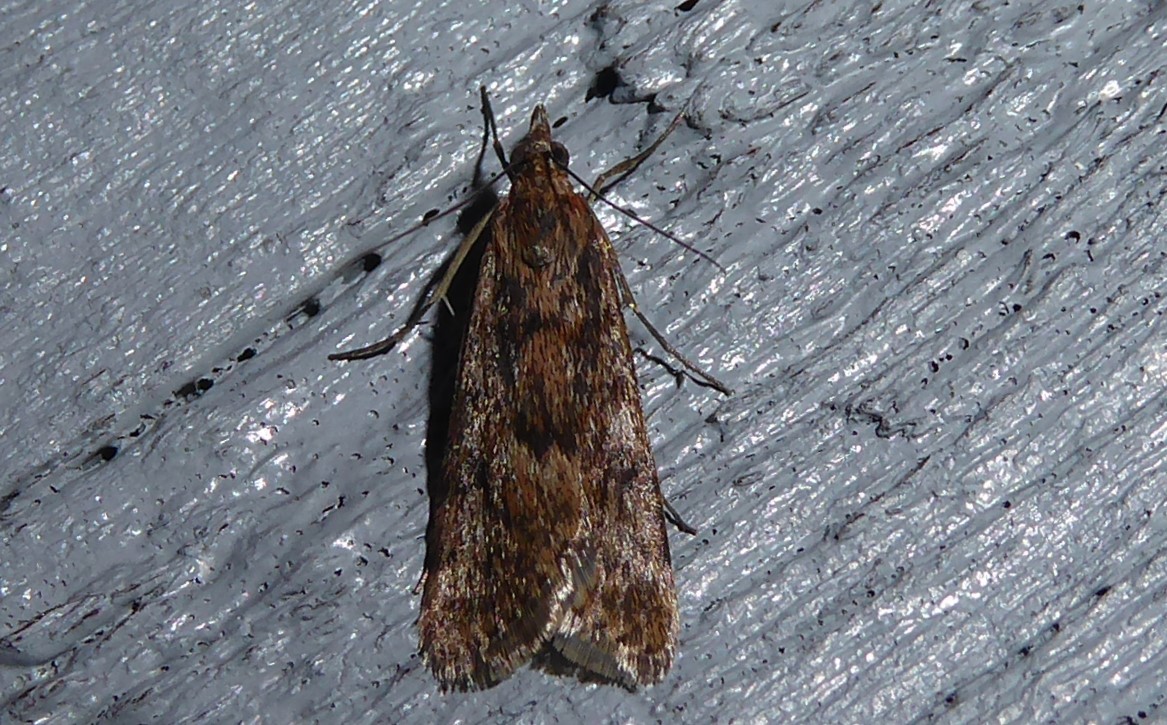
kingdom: Animalia
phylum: Arthropoda
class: Insecta
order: Lepidoptera
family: Crambidae
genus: Achyra
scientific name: Achyra affinitalis
